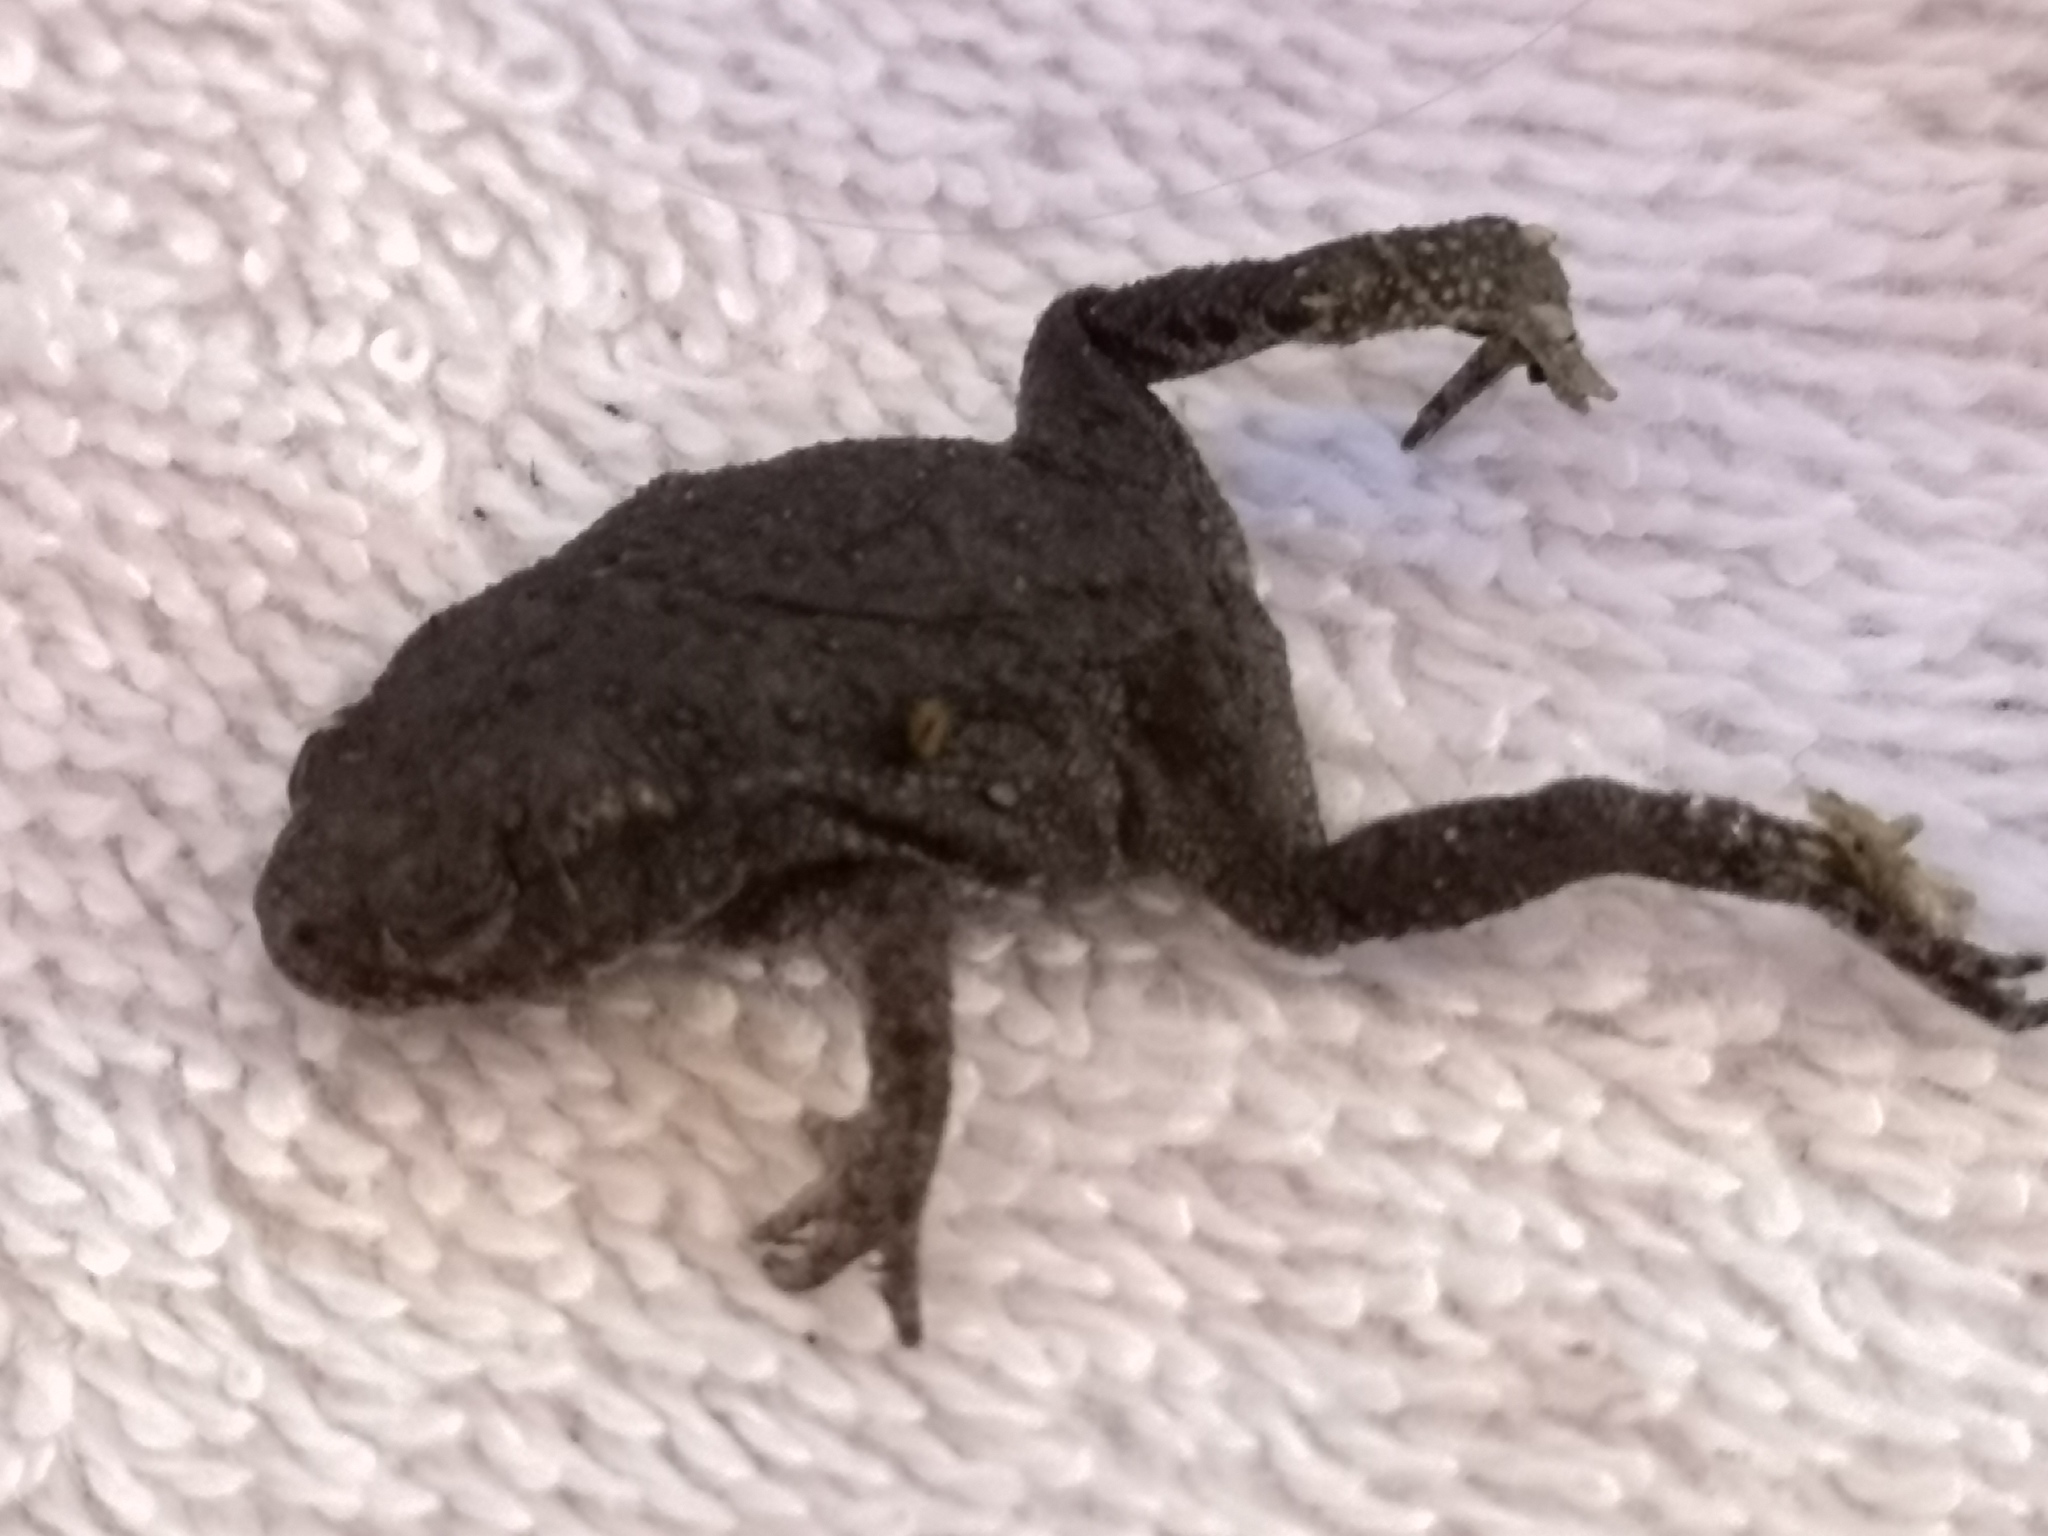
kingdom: Animalia
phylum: Chordata
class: Amphibia
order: Anura
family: Bufonidae
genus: Bufo
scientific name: Bufo bufo
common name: Common toad
